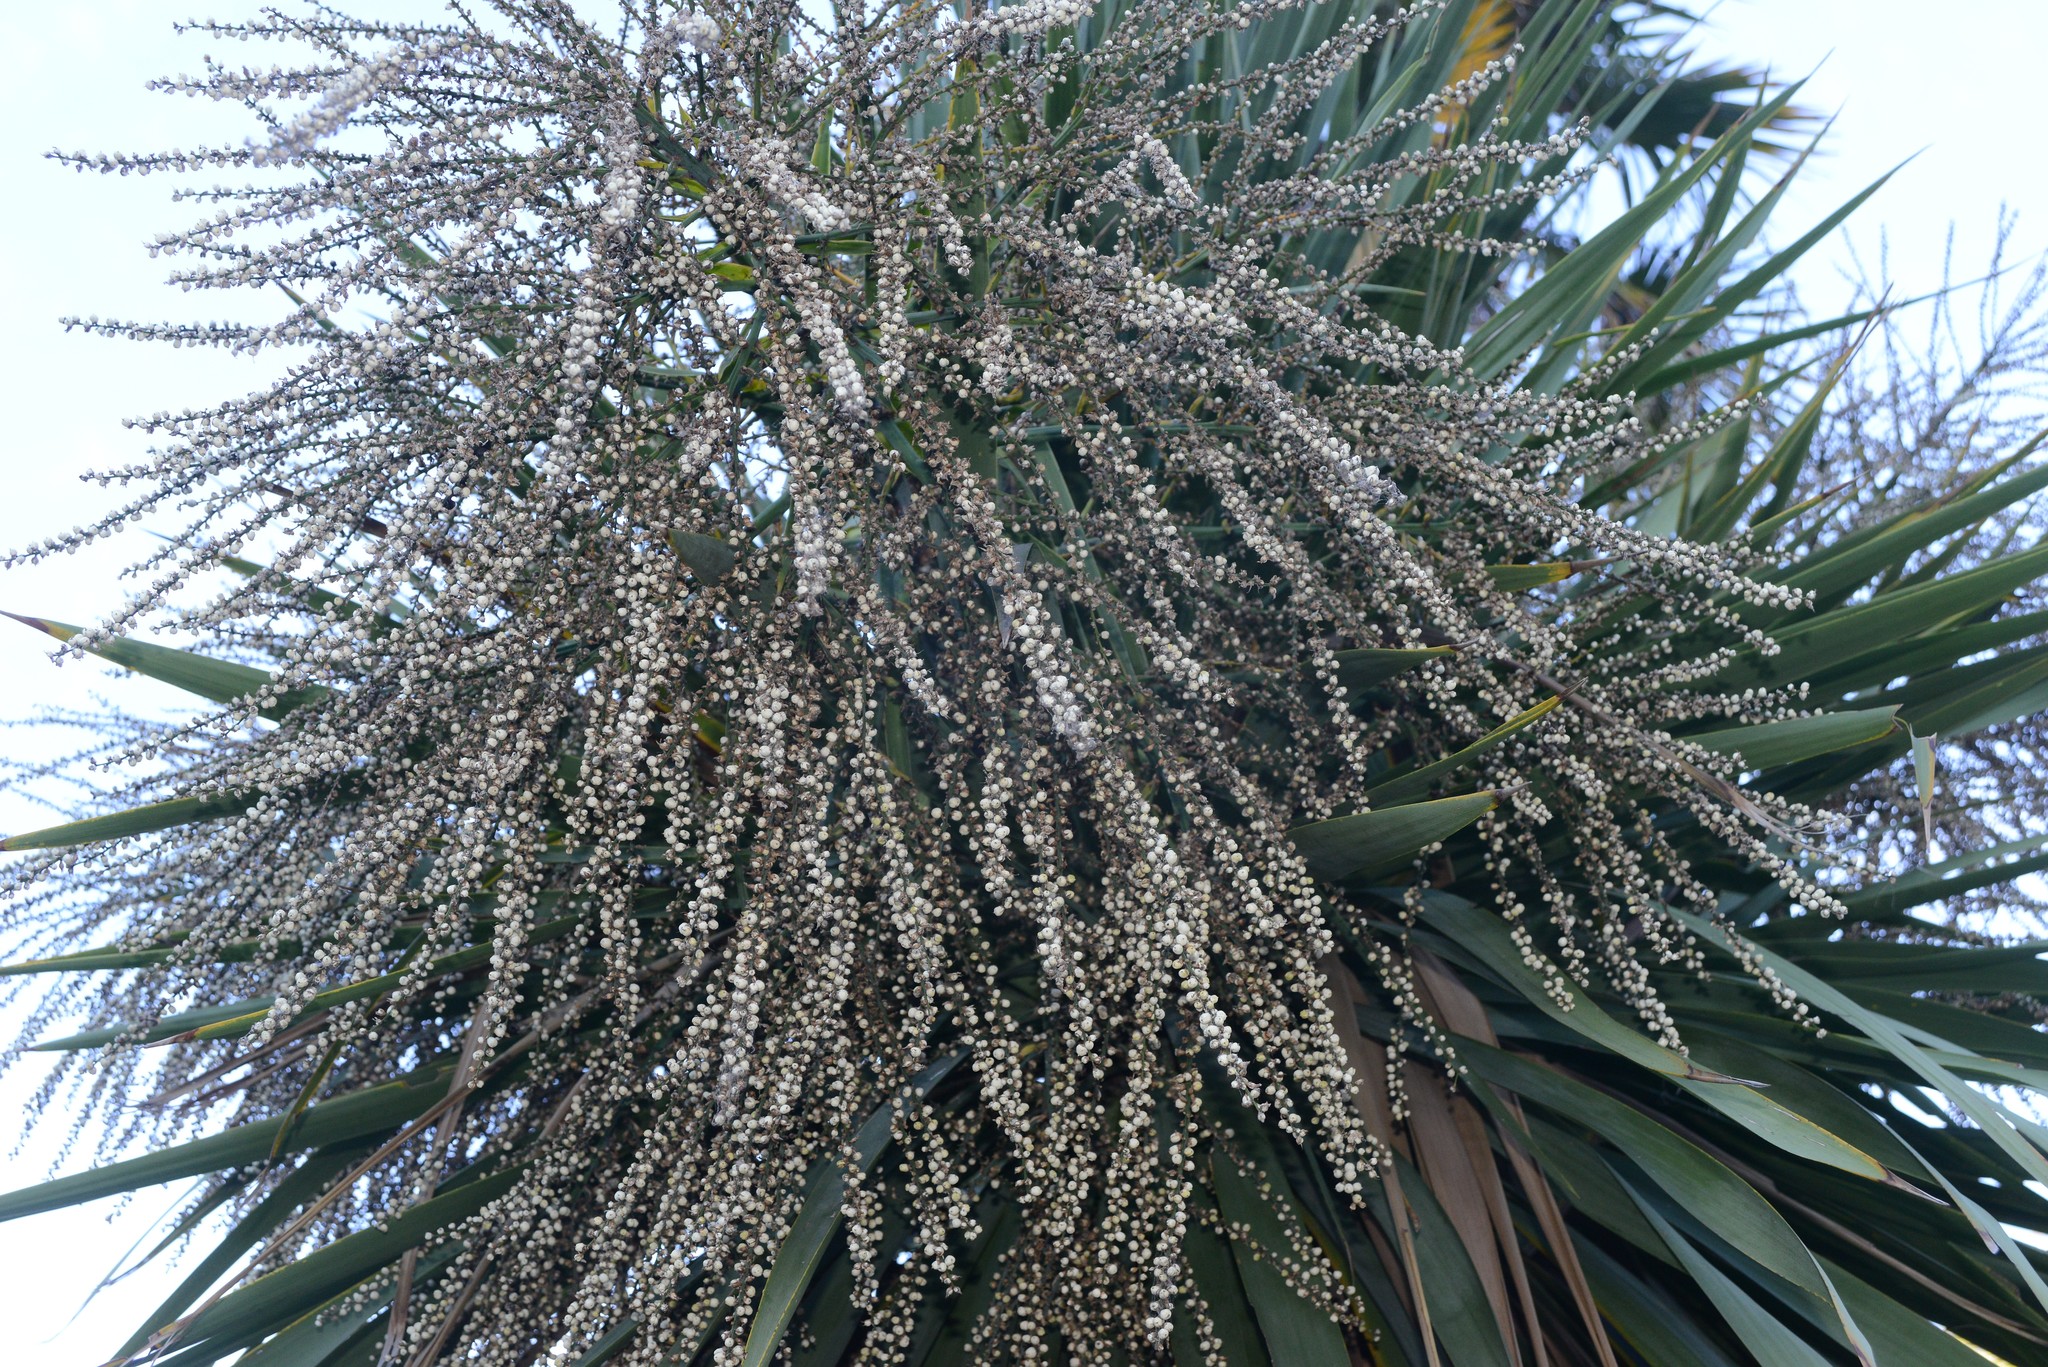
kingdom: Plantae
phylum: Tracheophyta
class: Liliopsida
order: Asparagales
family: Asparagaceae
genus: Cordyline
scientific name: Cordyline australis
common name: Cabbage-palm
